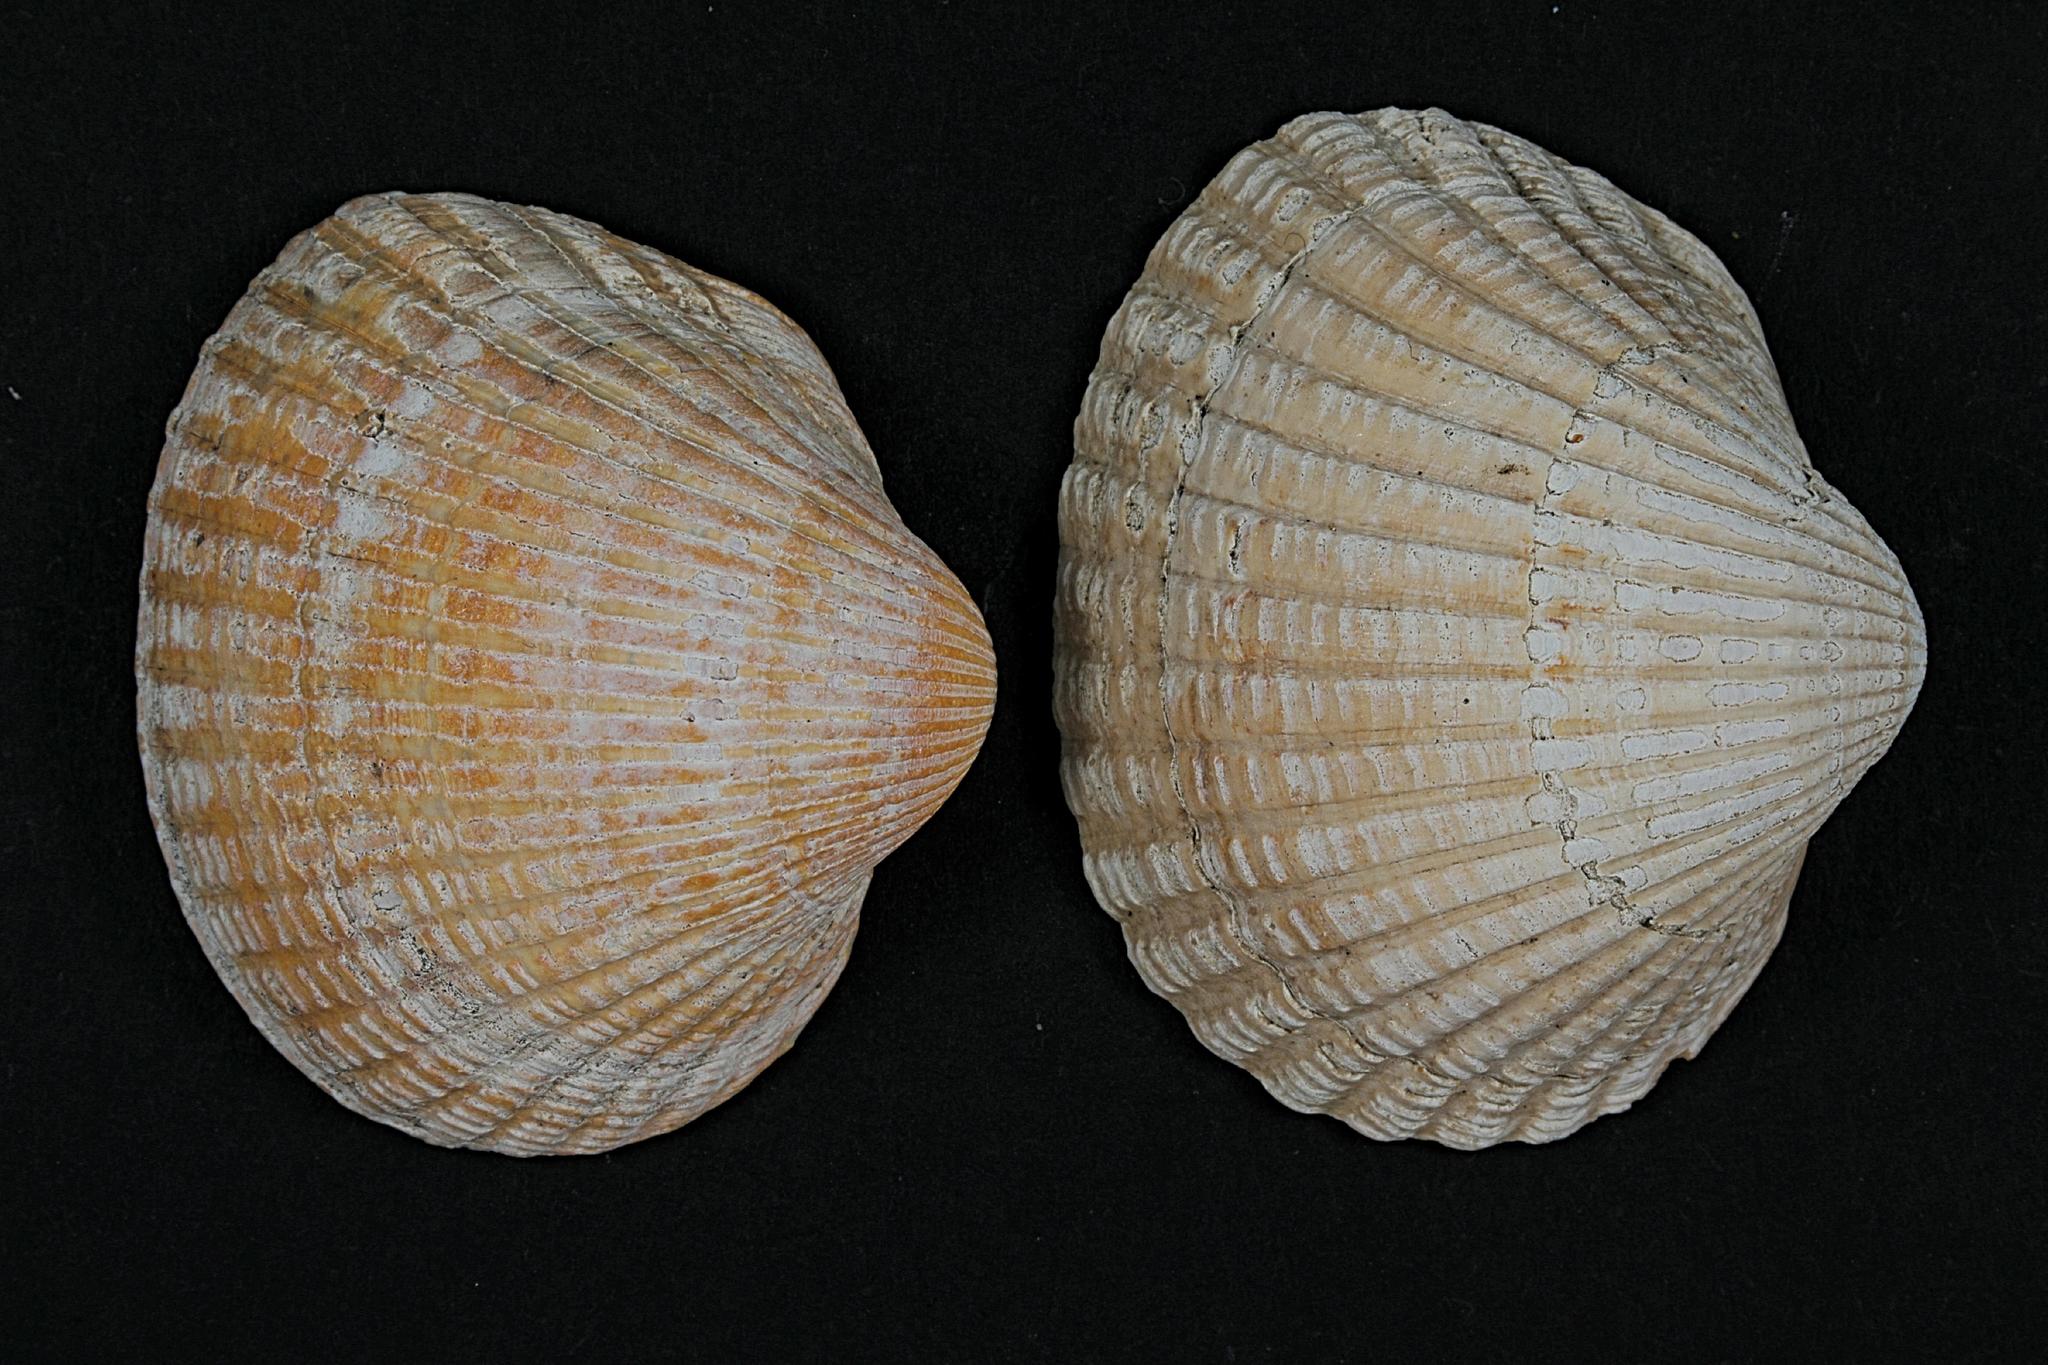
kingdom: Animalia
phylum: Mollusca
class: Bivalvia
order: Cardiida
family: Cardiidae
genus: Cerastoderma
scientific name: Cerastoderma edule
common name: Common cockle
